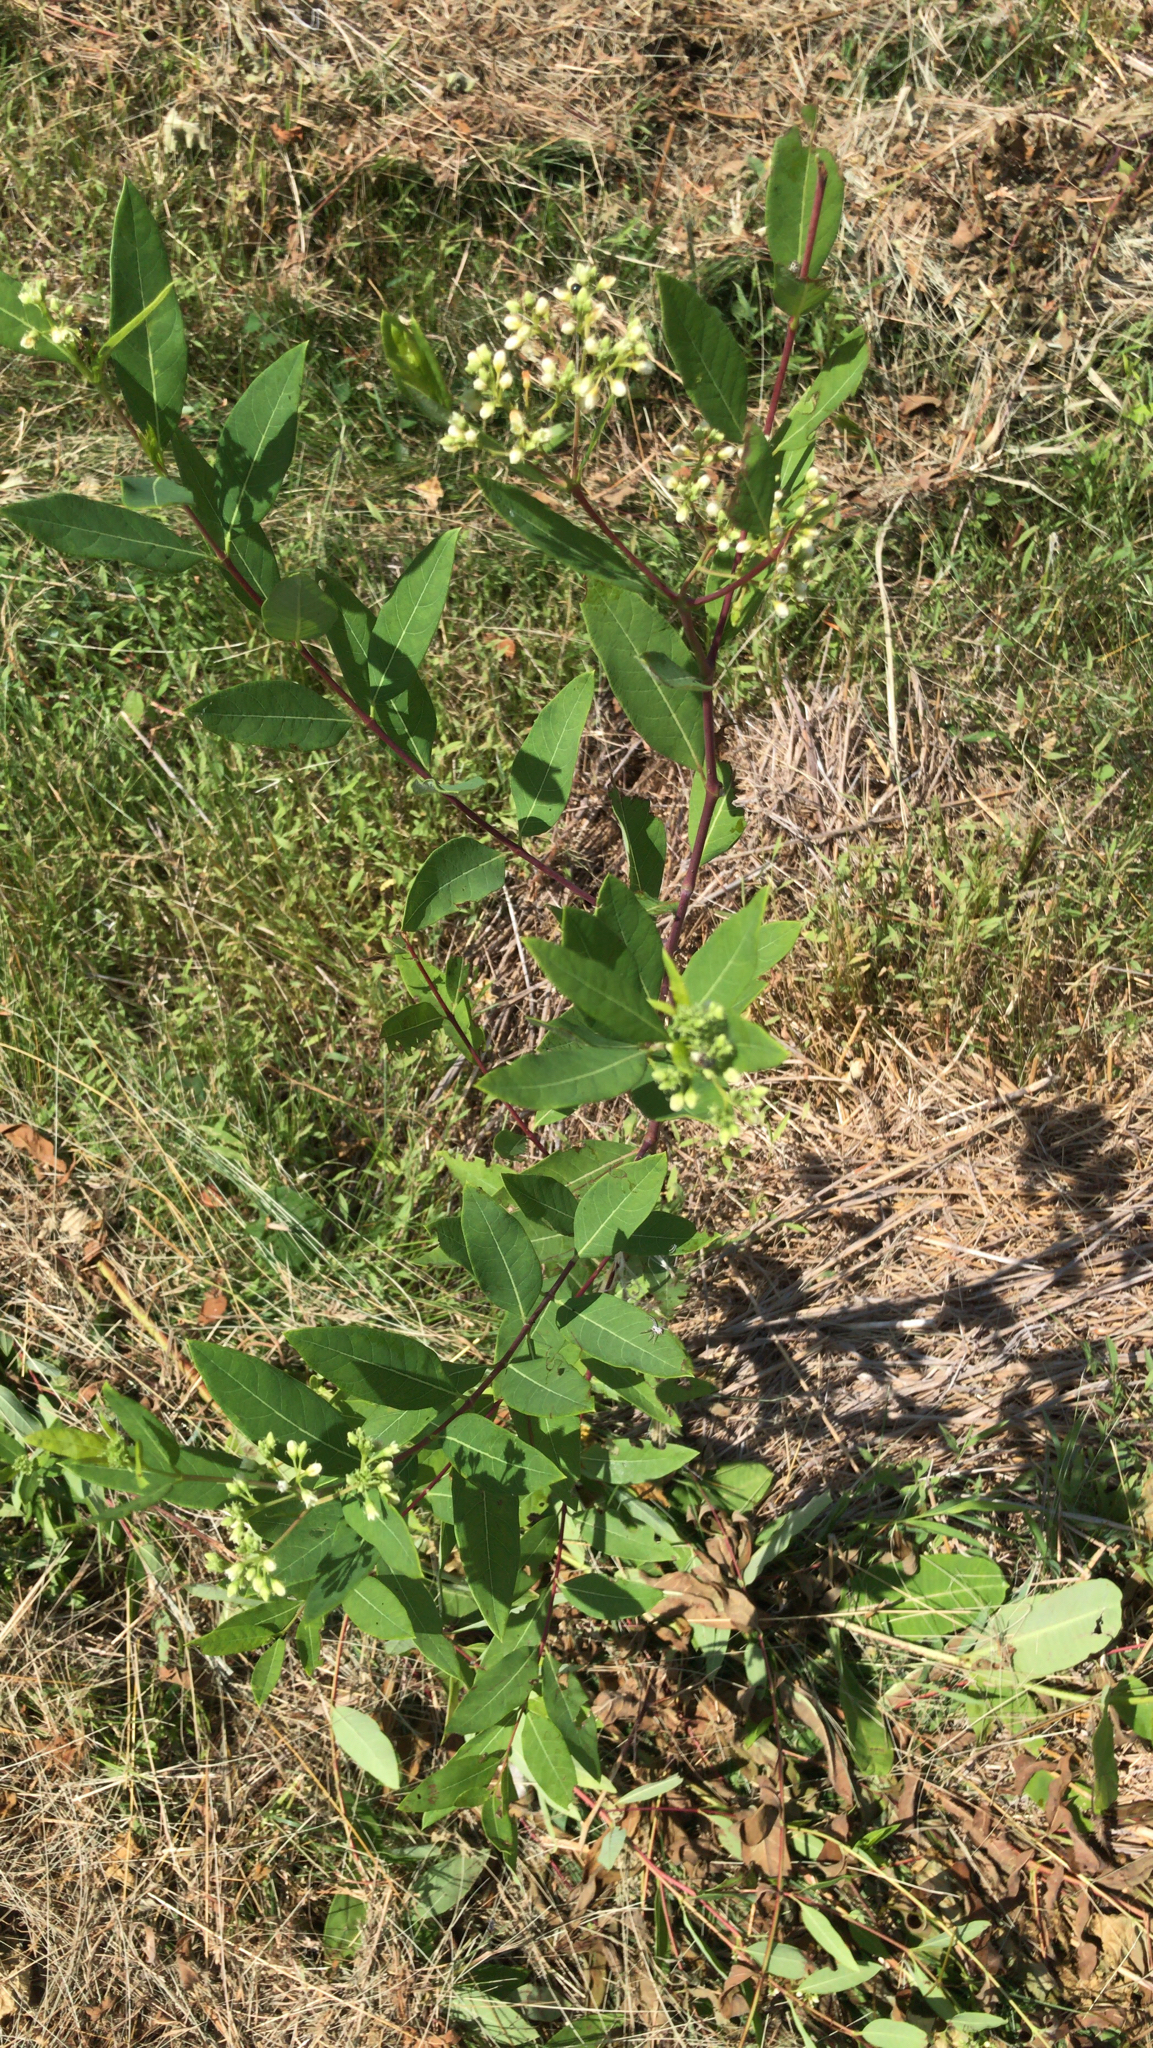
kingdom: Plantae
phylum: Tracheophyta
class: Magnoliopsida
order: Gentianales
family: Apocynaceae
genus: Apocynum
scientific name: Apocynum cannabinum
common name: Hemp dogbane
